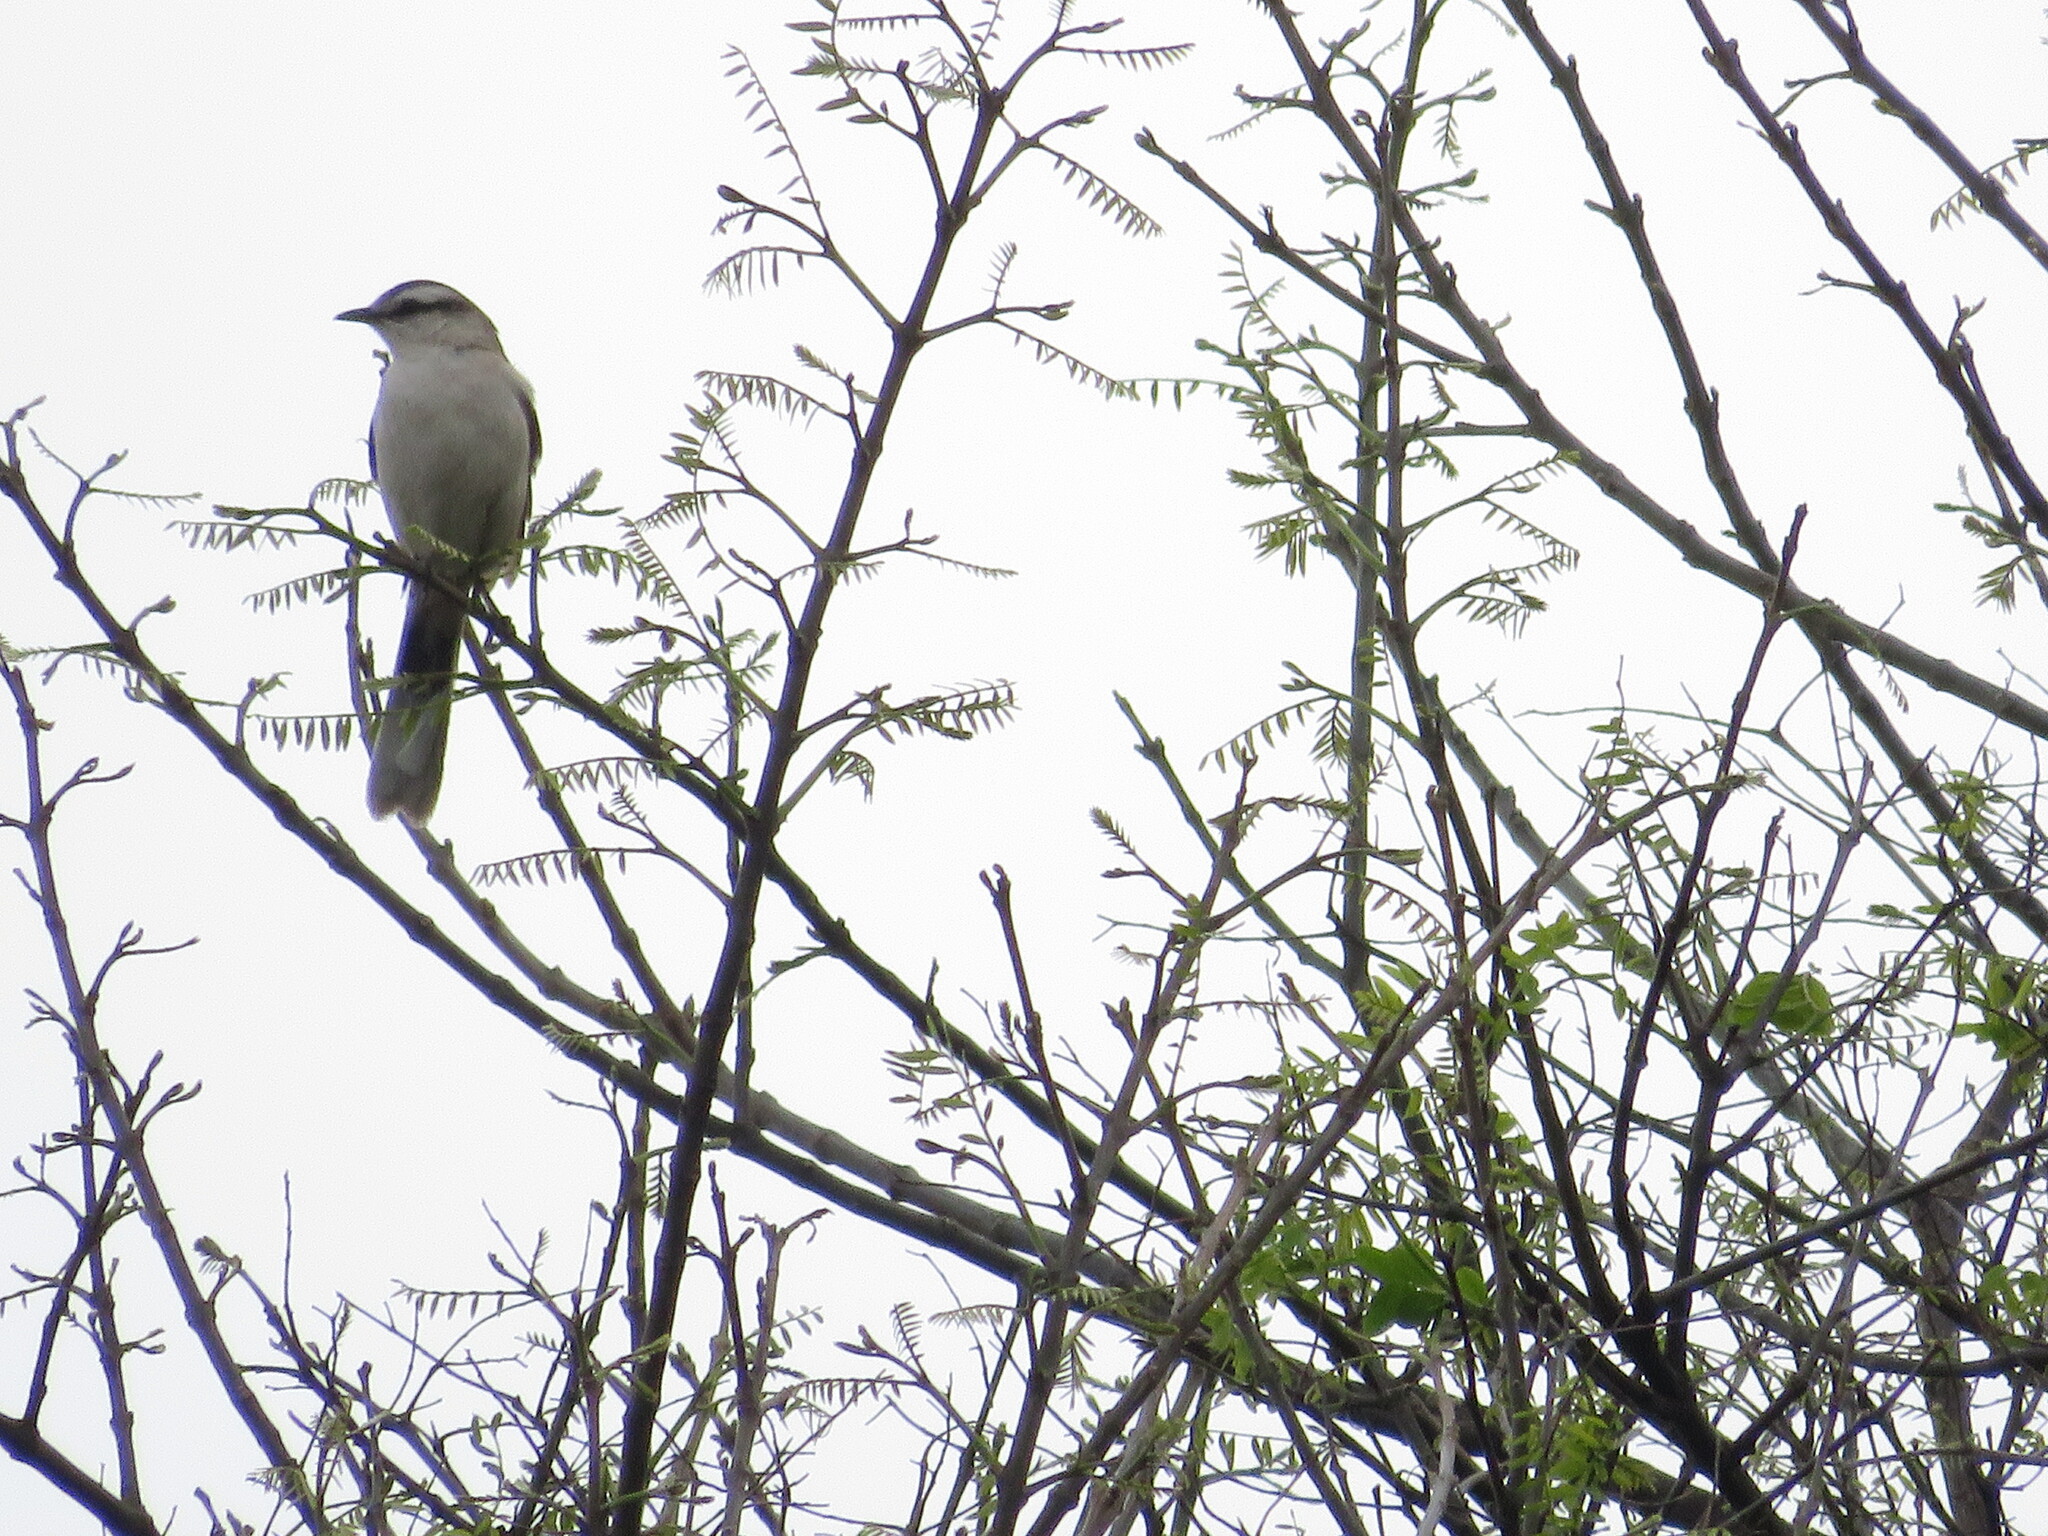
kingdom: Animalia
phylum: Chordata
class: Aves
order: Passeriformes
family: Mimidae
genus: Mimus
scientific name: Mimus saturninus
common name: Chalk-browed mockingbird
